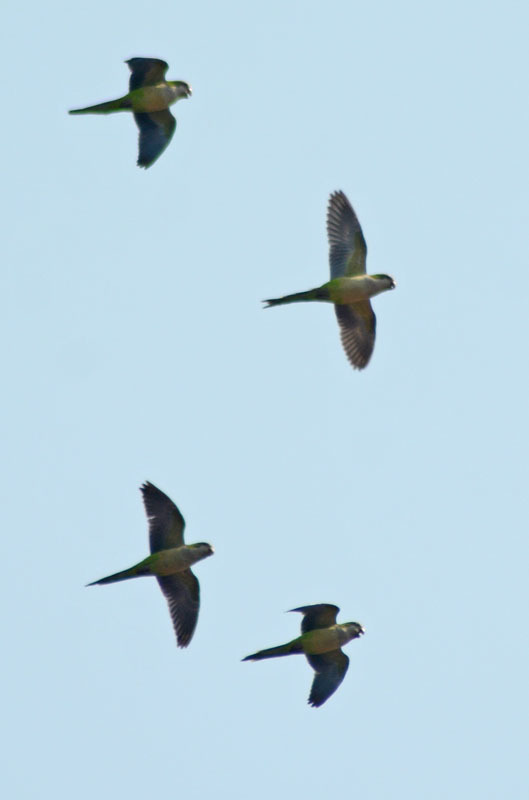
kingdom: Animalia
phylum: Chordata
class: Aves
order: Psittaciformes
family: Psittacidae
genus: Myiopsitta
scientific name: Myiopsitta monachus
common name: Monk parakeet
